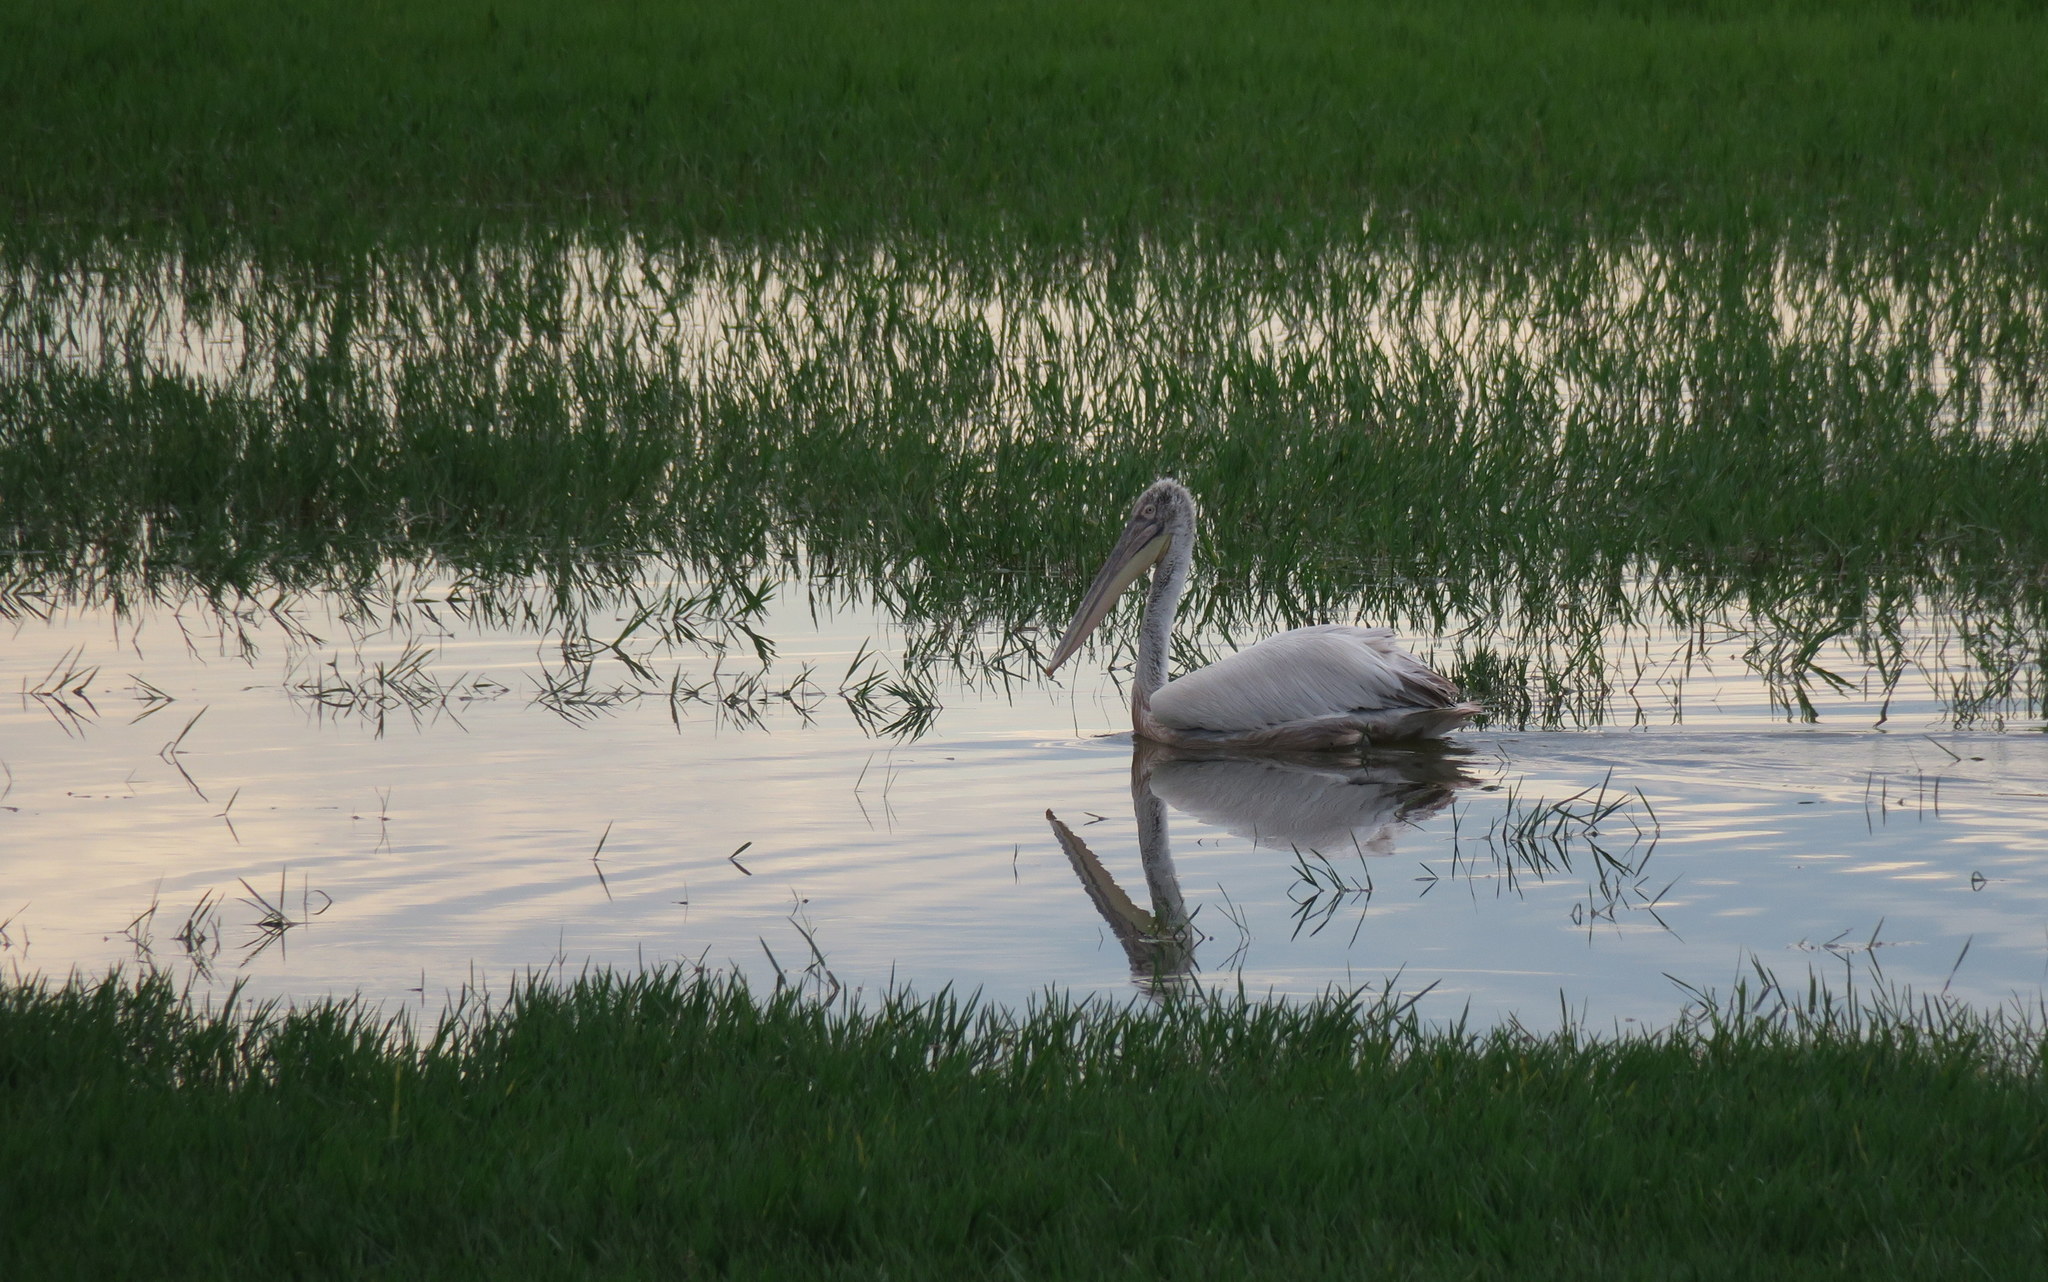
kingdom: Animalia
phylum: Chordata
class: Aves
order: Pelecaniformes
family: Pelecanidae
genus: Pelecanus
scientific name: Pelecanus crispus
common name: Dalmatian pelican
